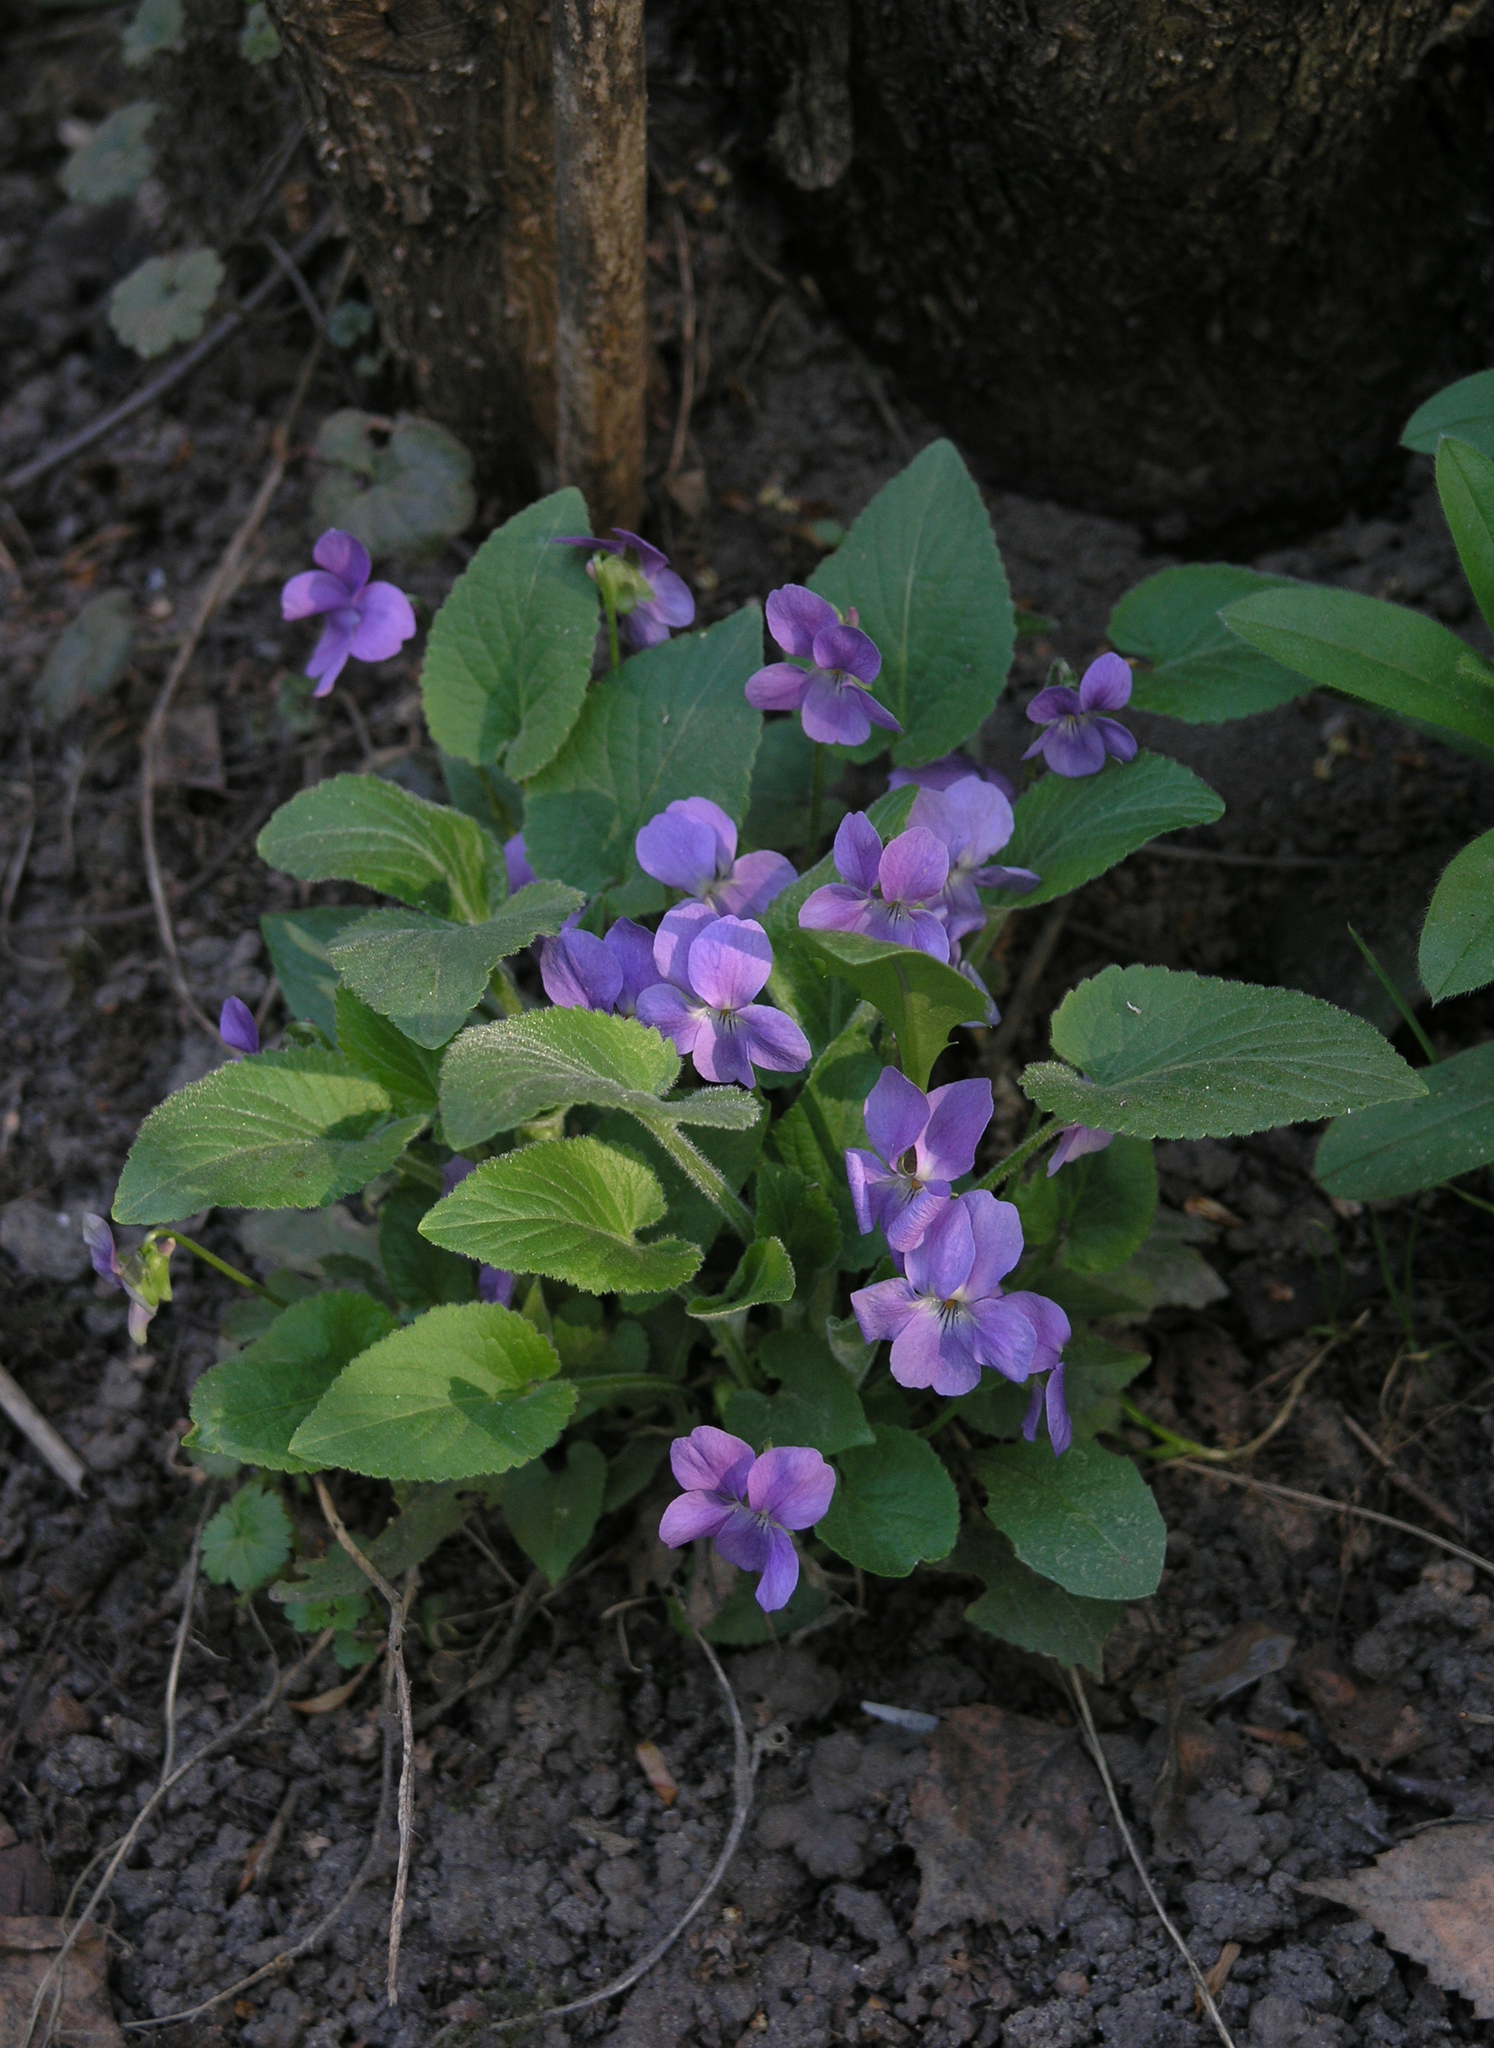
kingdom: Plantae
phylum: Tracheophyta
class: Magnoliopsida
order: Malpighiales
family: Violaceae
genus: Viola
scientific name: Viola hirta
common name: Hairy violet
